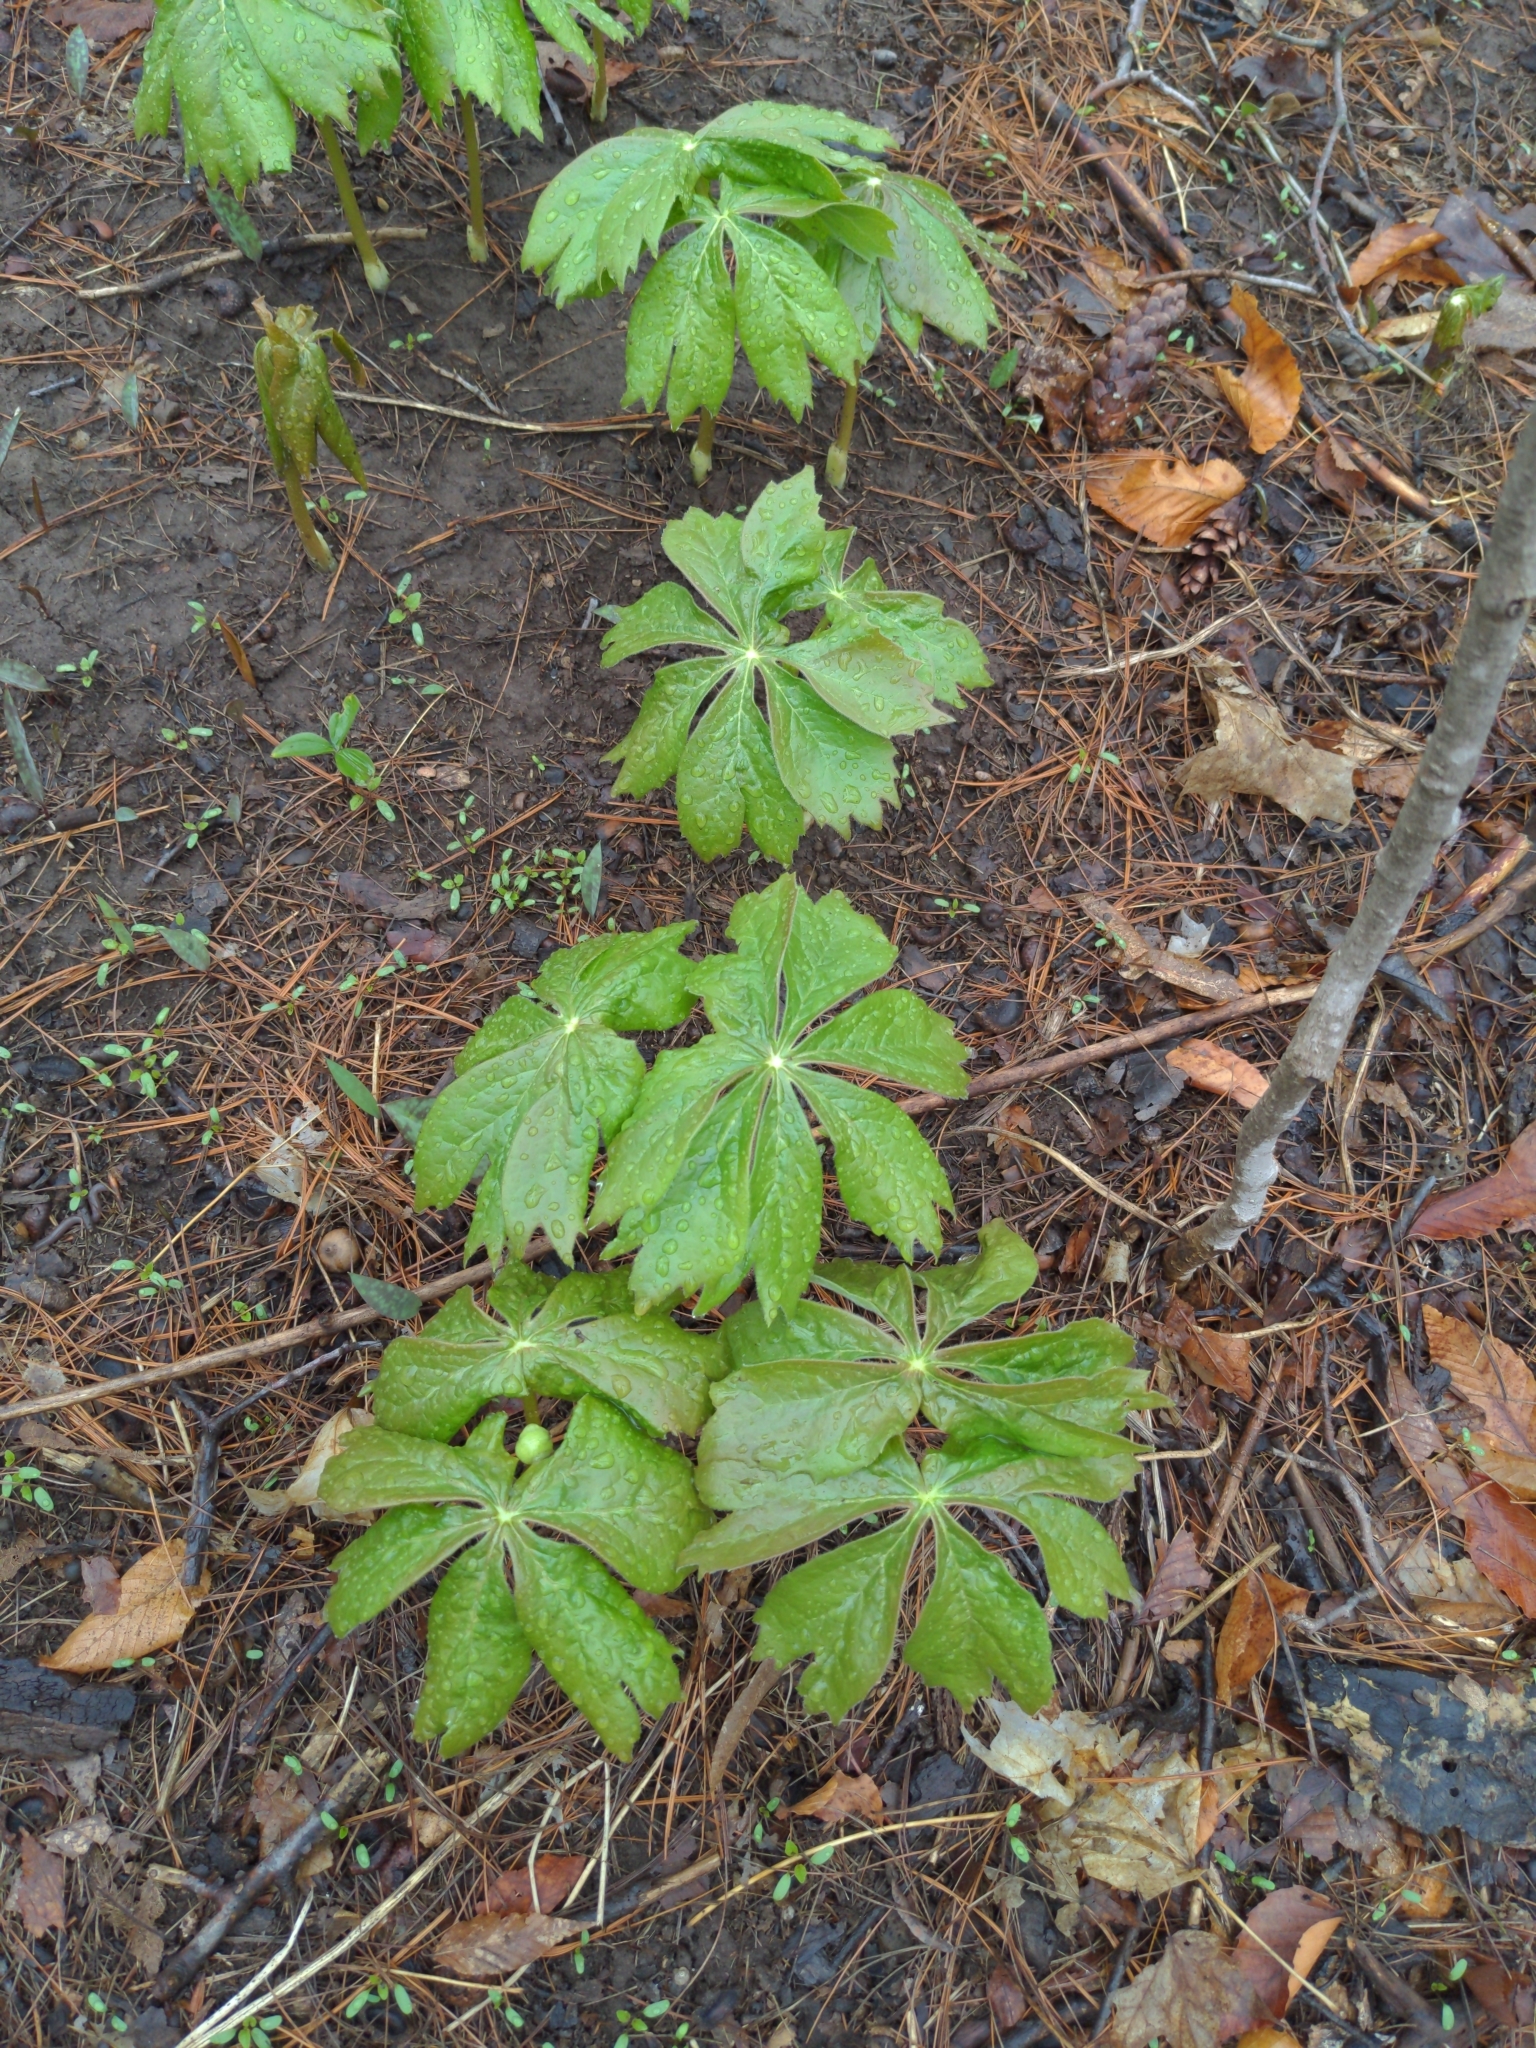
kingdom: Plantae
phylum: Tracheophyta
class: Magnoliopsida
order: Ranunculales
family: Berberidaceae
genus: Podophyllum
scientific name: Podophyllum peltatum
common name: Wild mandrake
